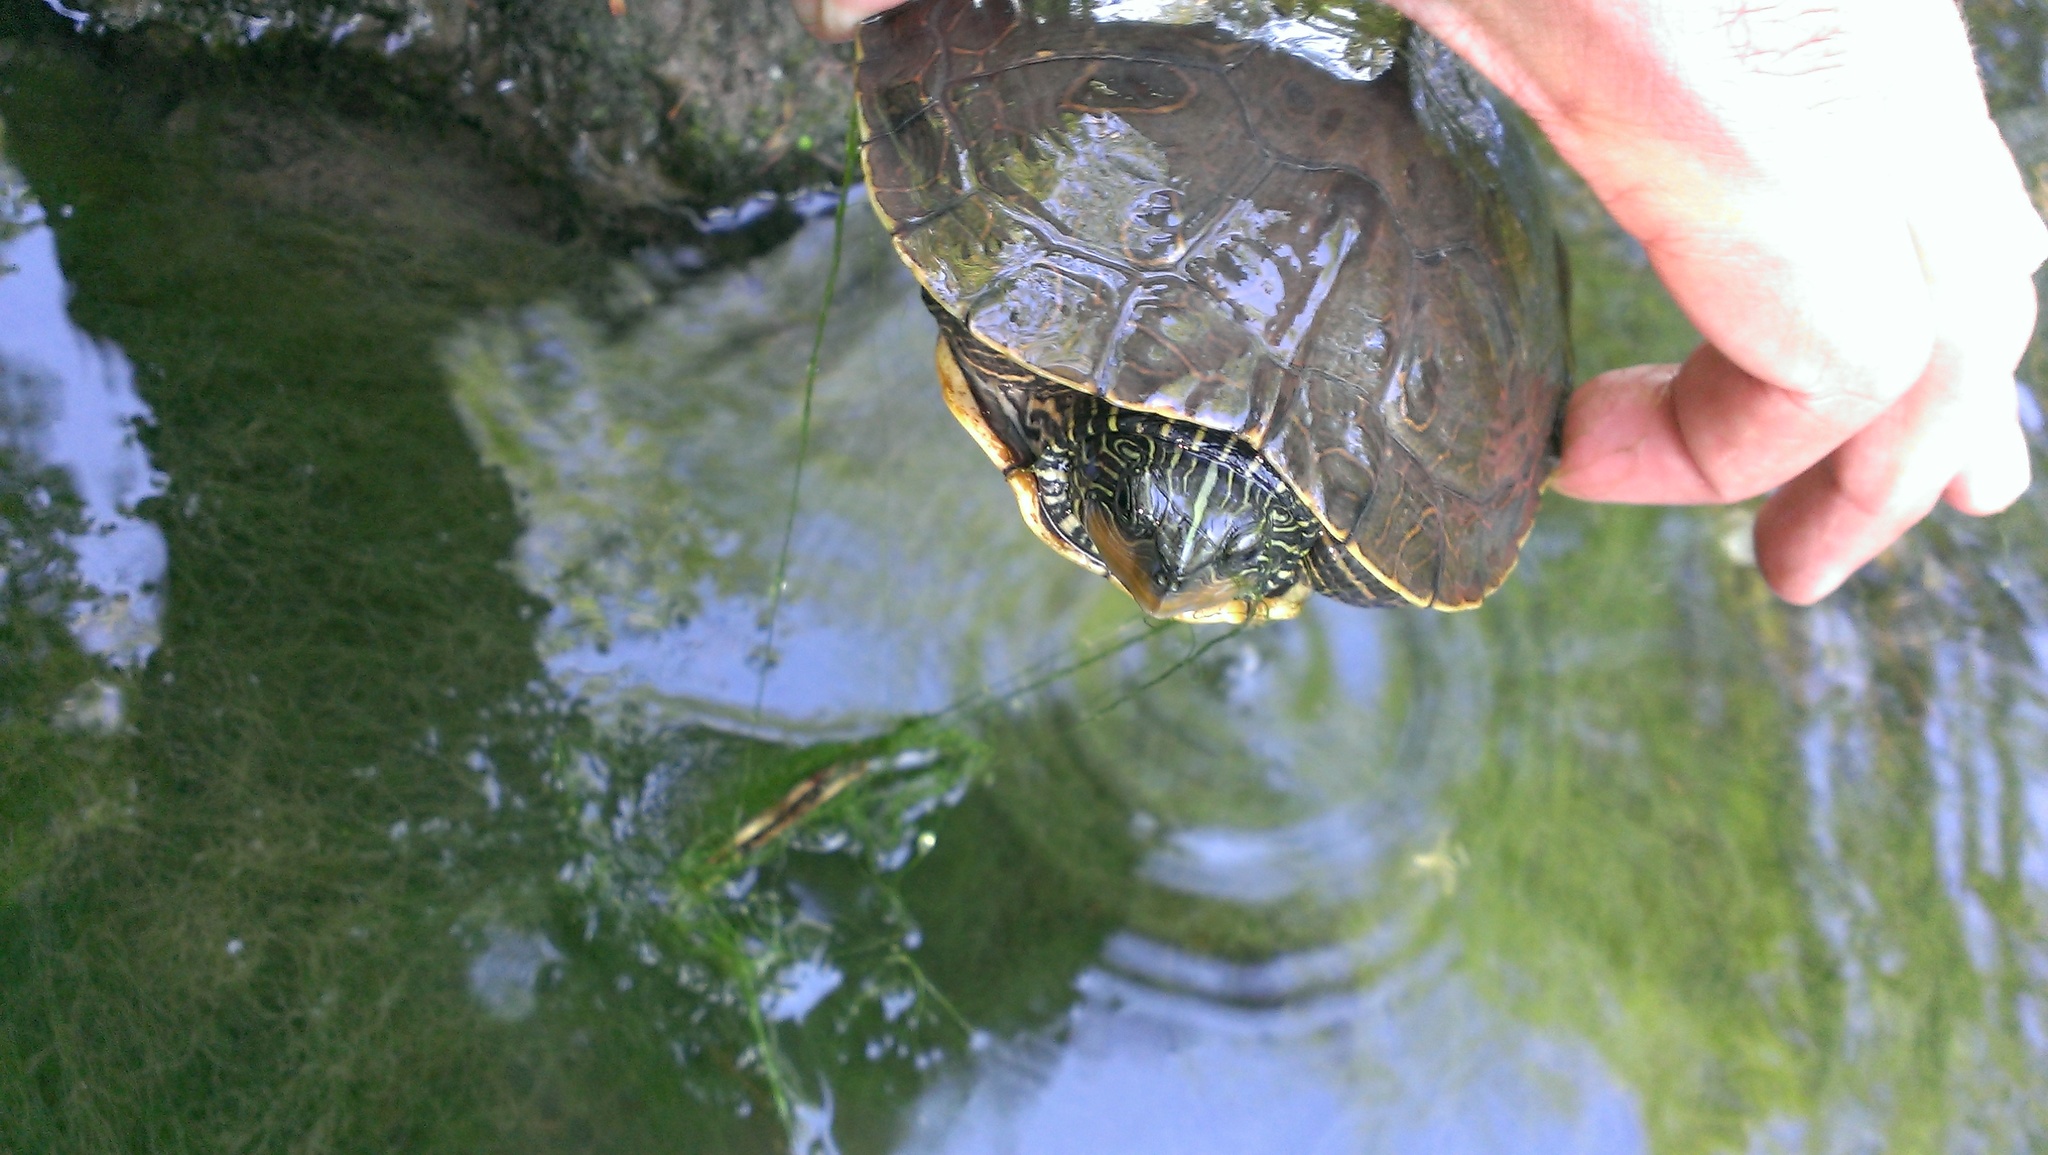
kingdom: Animalia
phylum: Chordata
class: Testudines
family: Emydidae
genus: Graptemys
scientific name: Graptemys geographica
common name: Common map turtle
